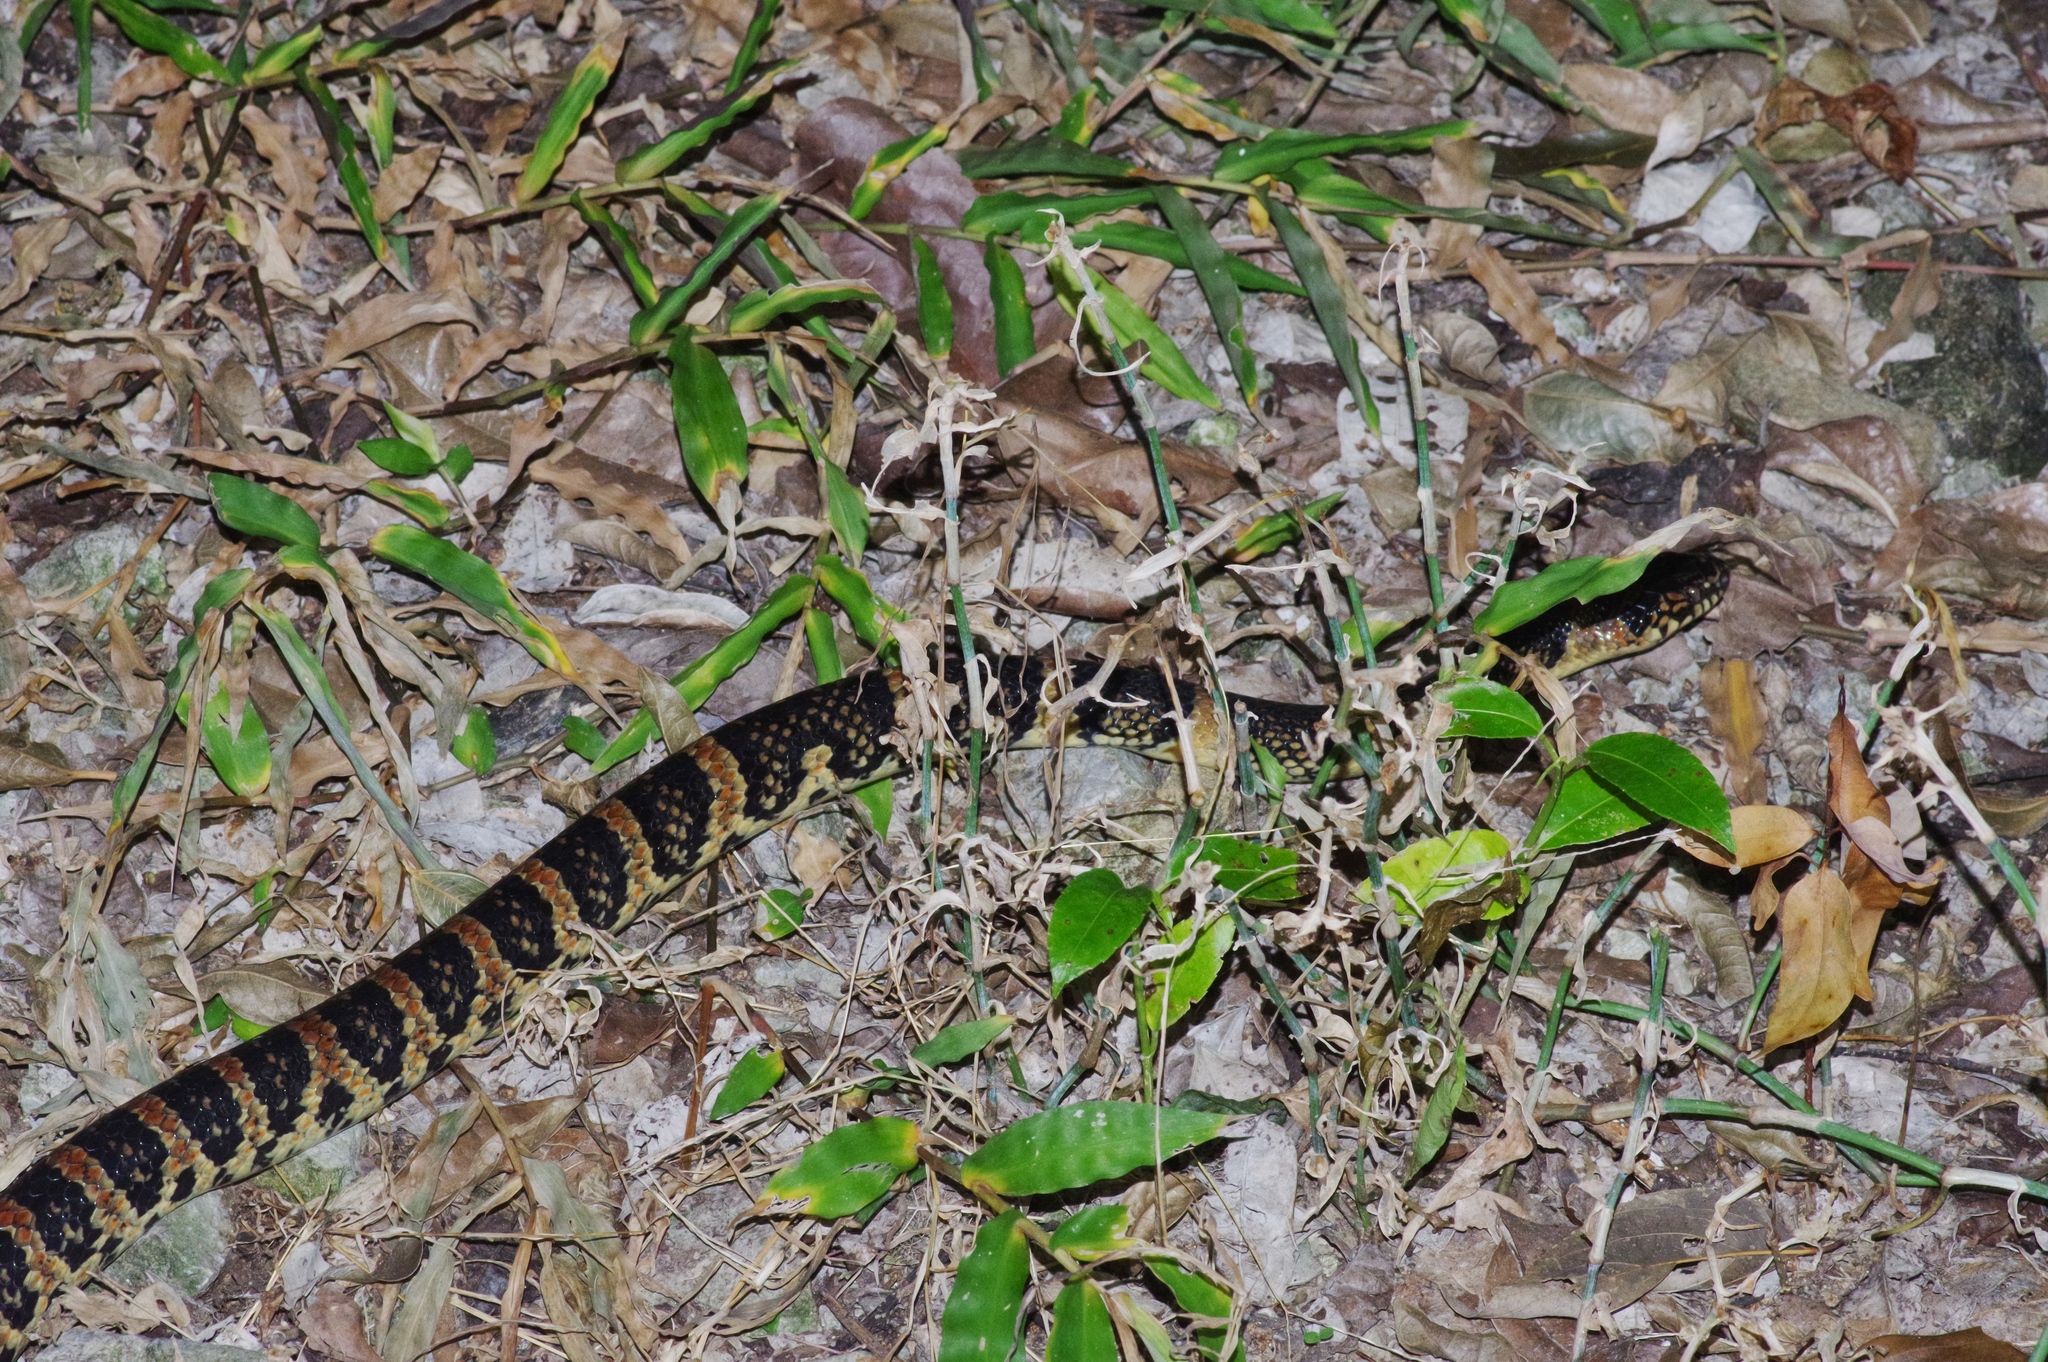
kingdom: Animalia
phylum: Chordata
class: Squamata
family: Colubridae
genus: Lycodon
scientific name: Lycodon semicarinatus
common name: Loo-choo big-tooth snake
